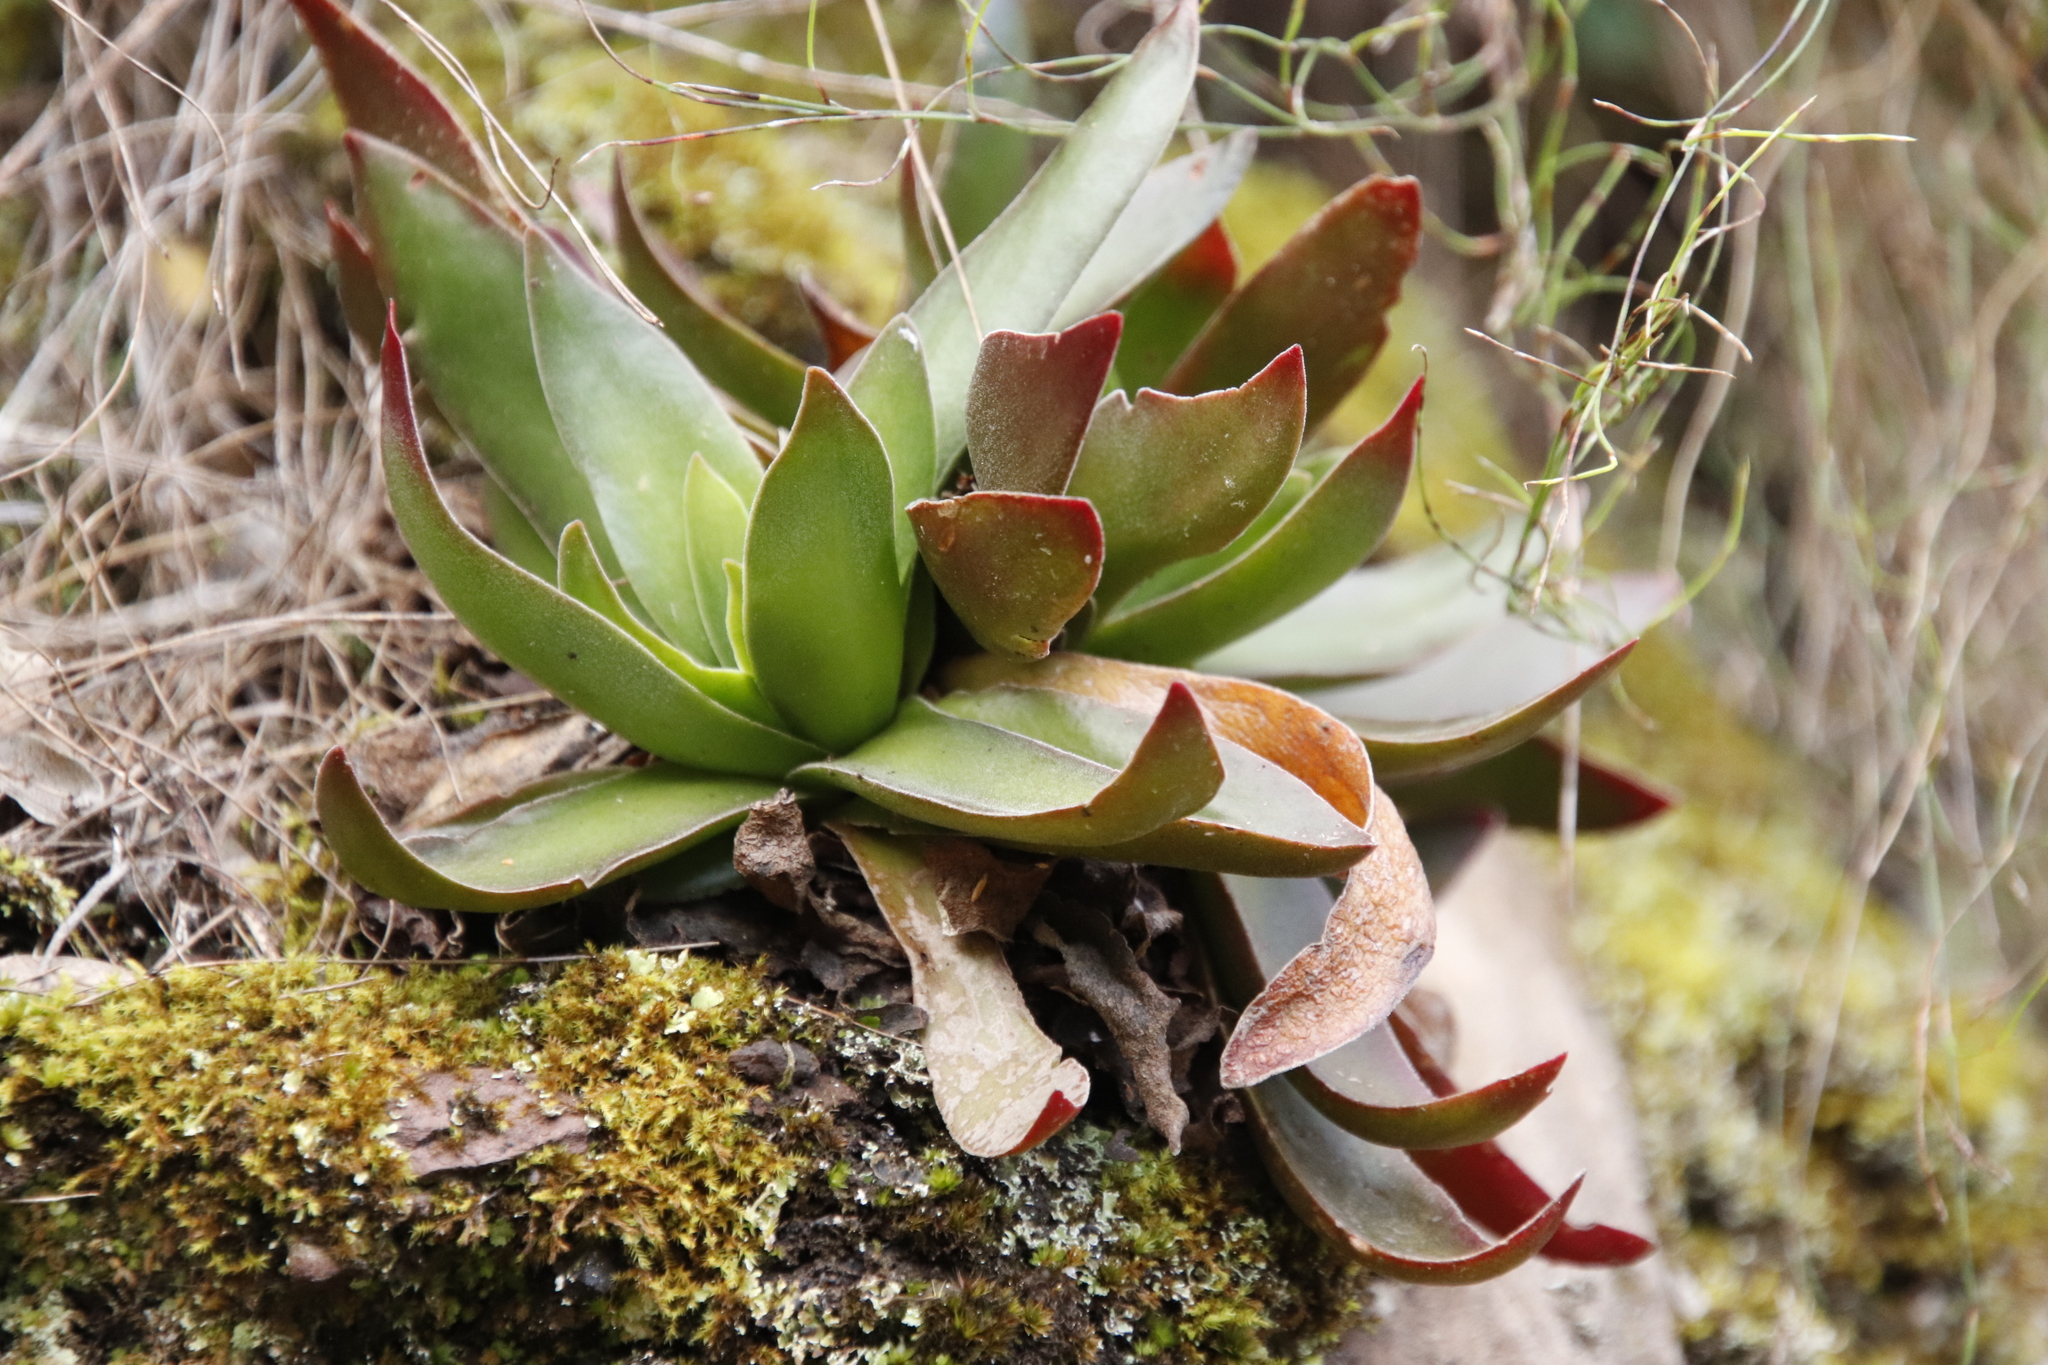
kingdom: Plantae
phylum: Tracheophyta
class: Magnoliopsida
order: Saxifragales
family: Crassulaceae
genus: Crassula
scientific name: Crassula nudicaulis
